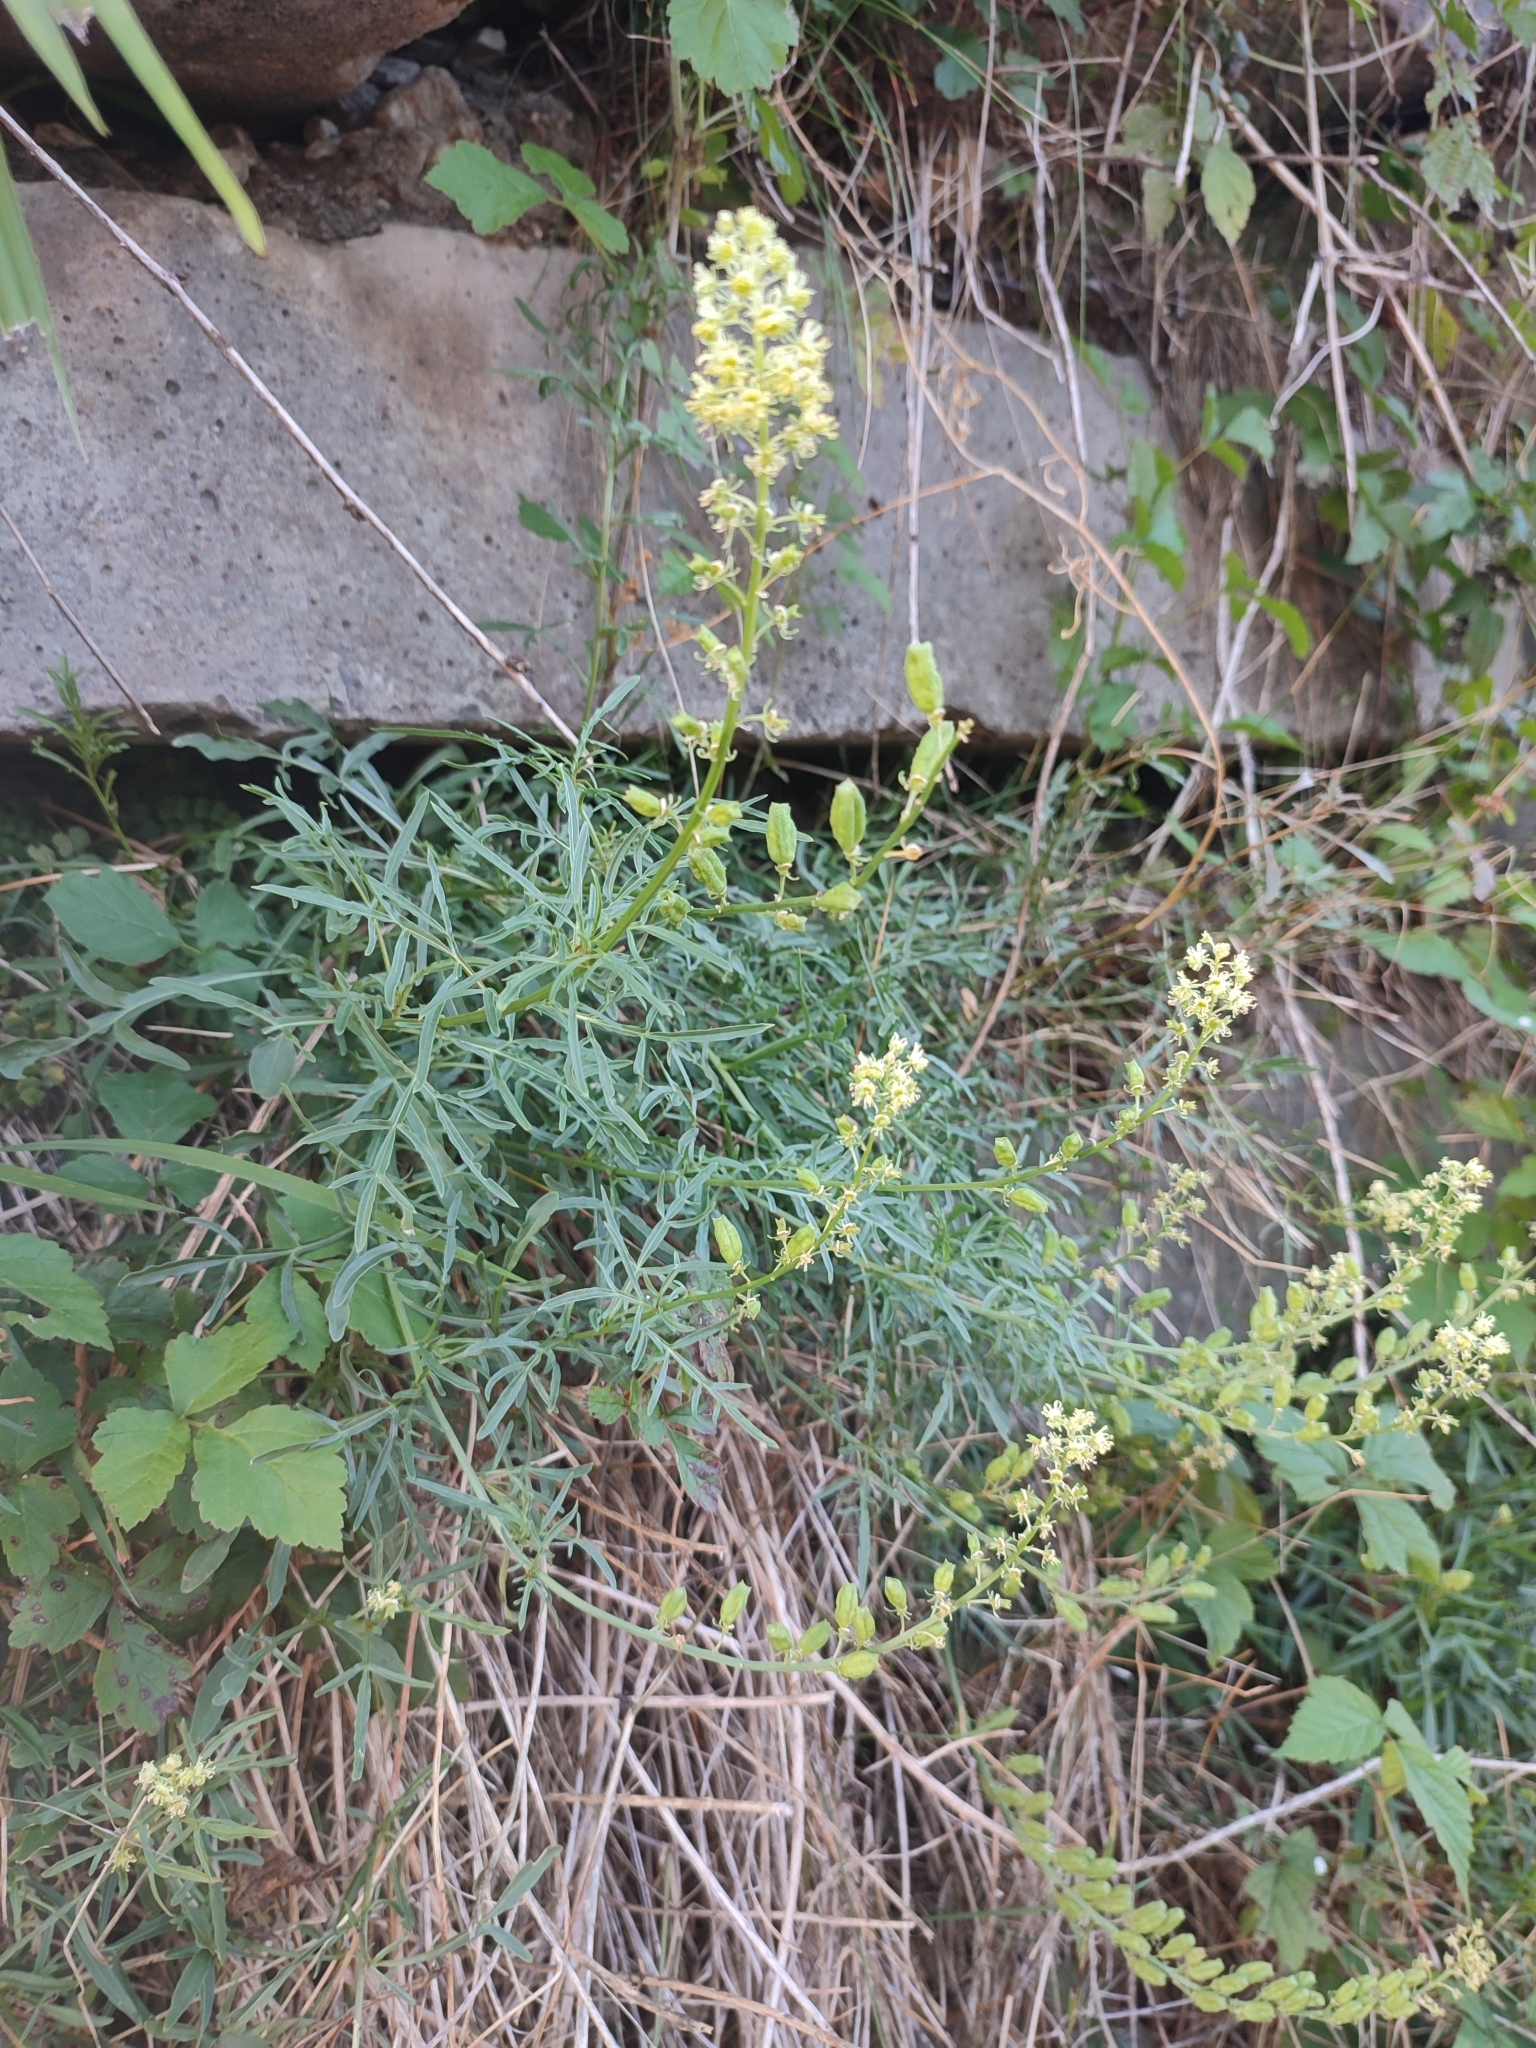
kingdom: Plantae
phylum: Tracheophyta
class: Magnoliopsida
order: Brassicales
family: Resedaceae
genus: Reseda
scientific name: Reseda lutea
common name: Wild mignonette
